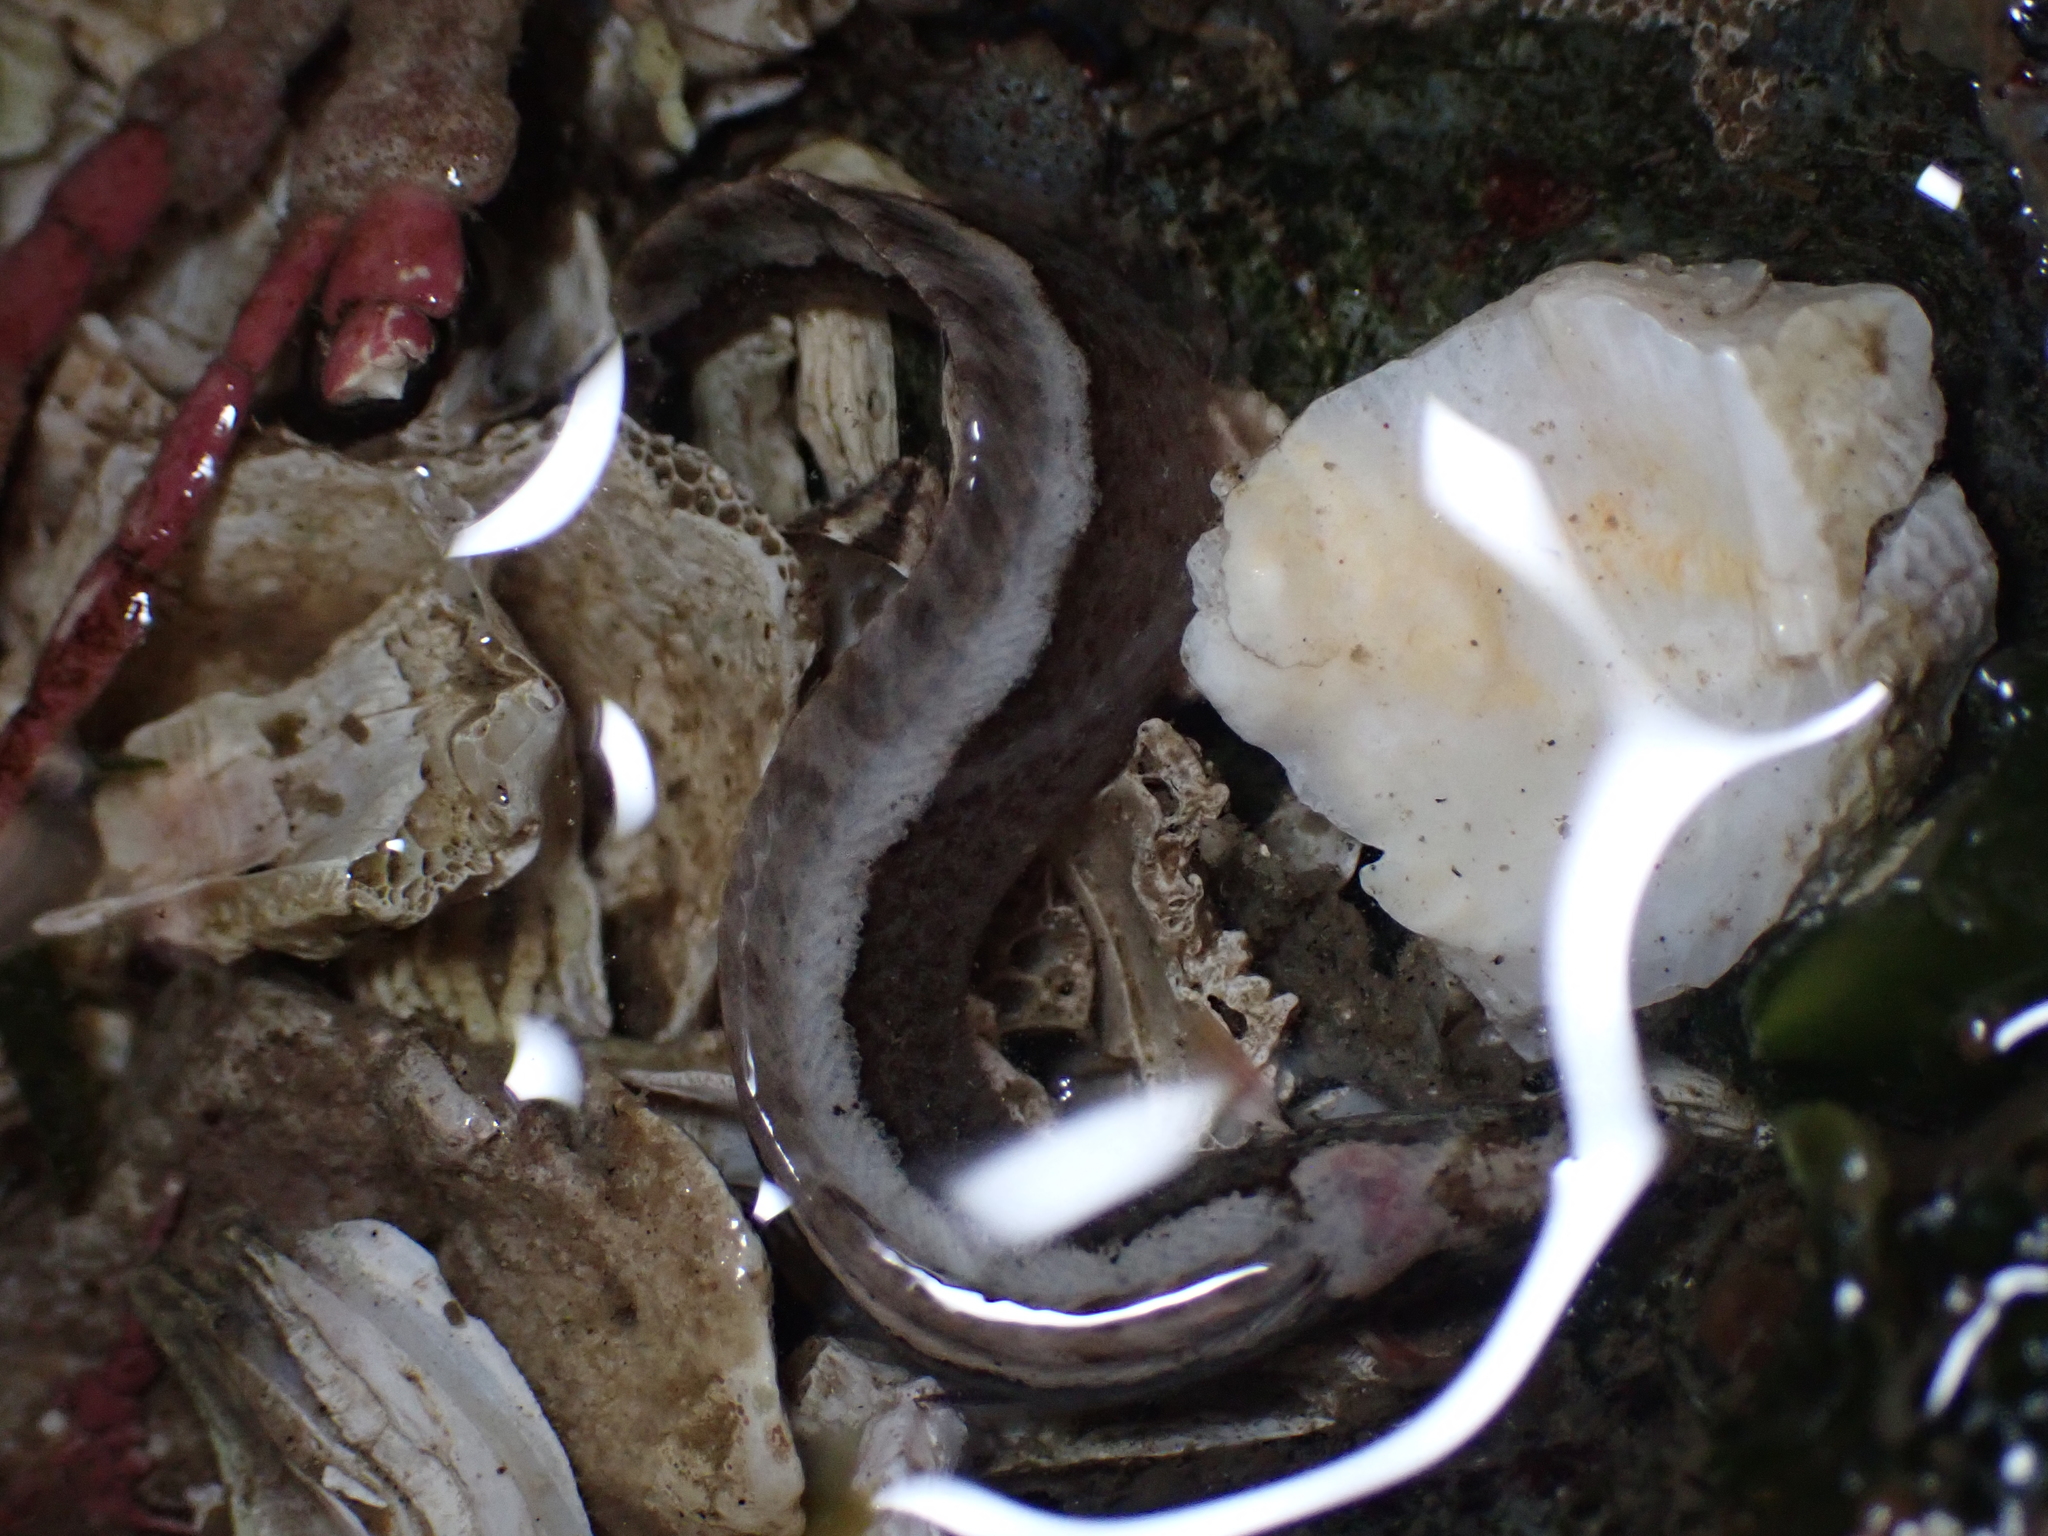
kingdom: Animalia
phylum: Chordata
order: Perciformes
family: Stichaeidae
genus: Anoplarchus
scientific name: Anoplarchus purpurescens
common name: High cockscomb
